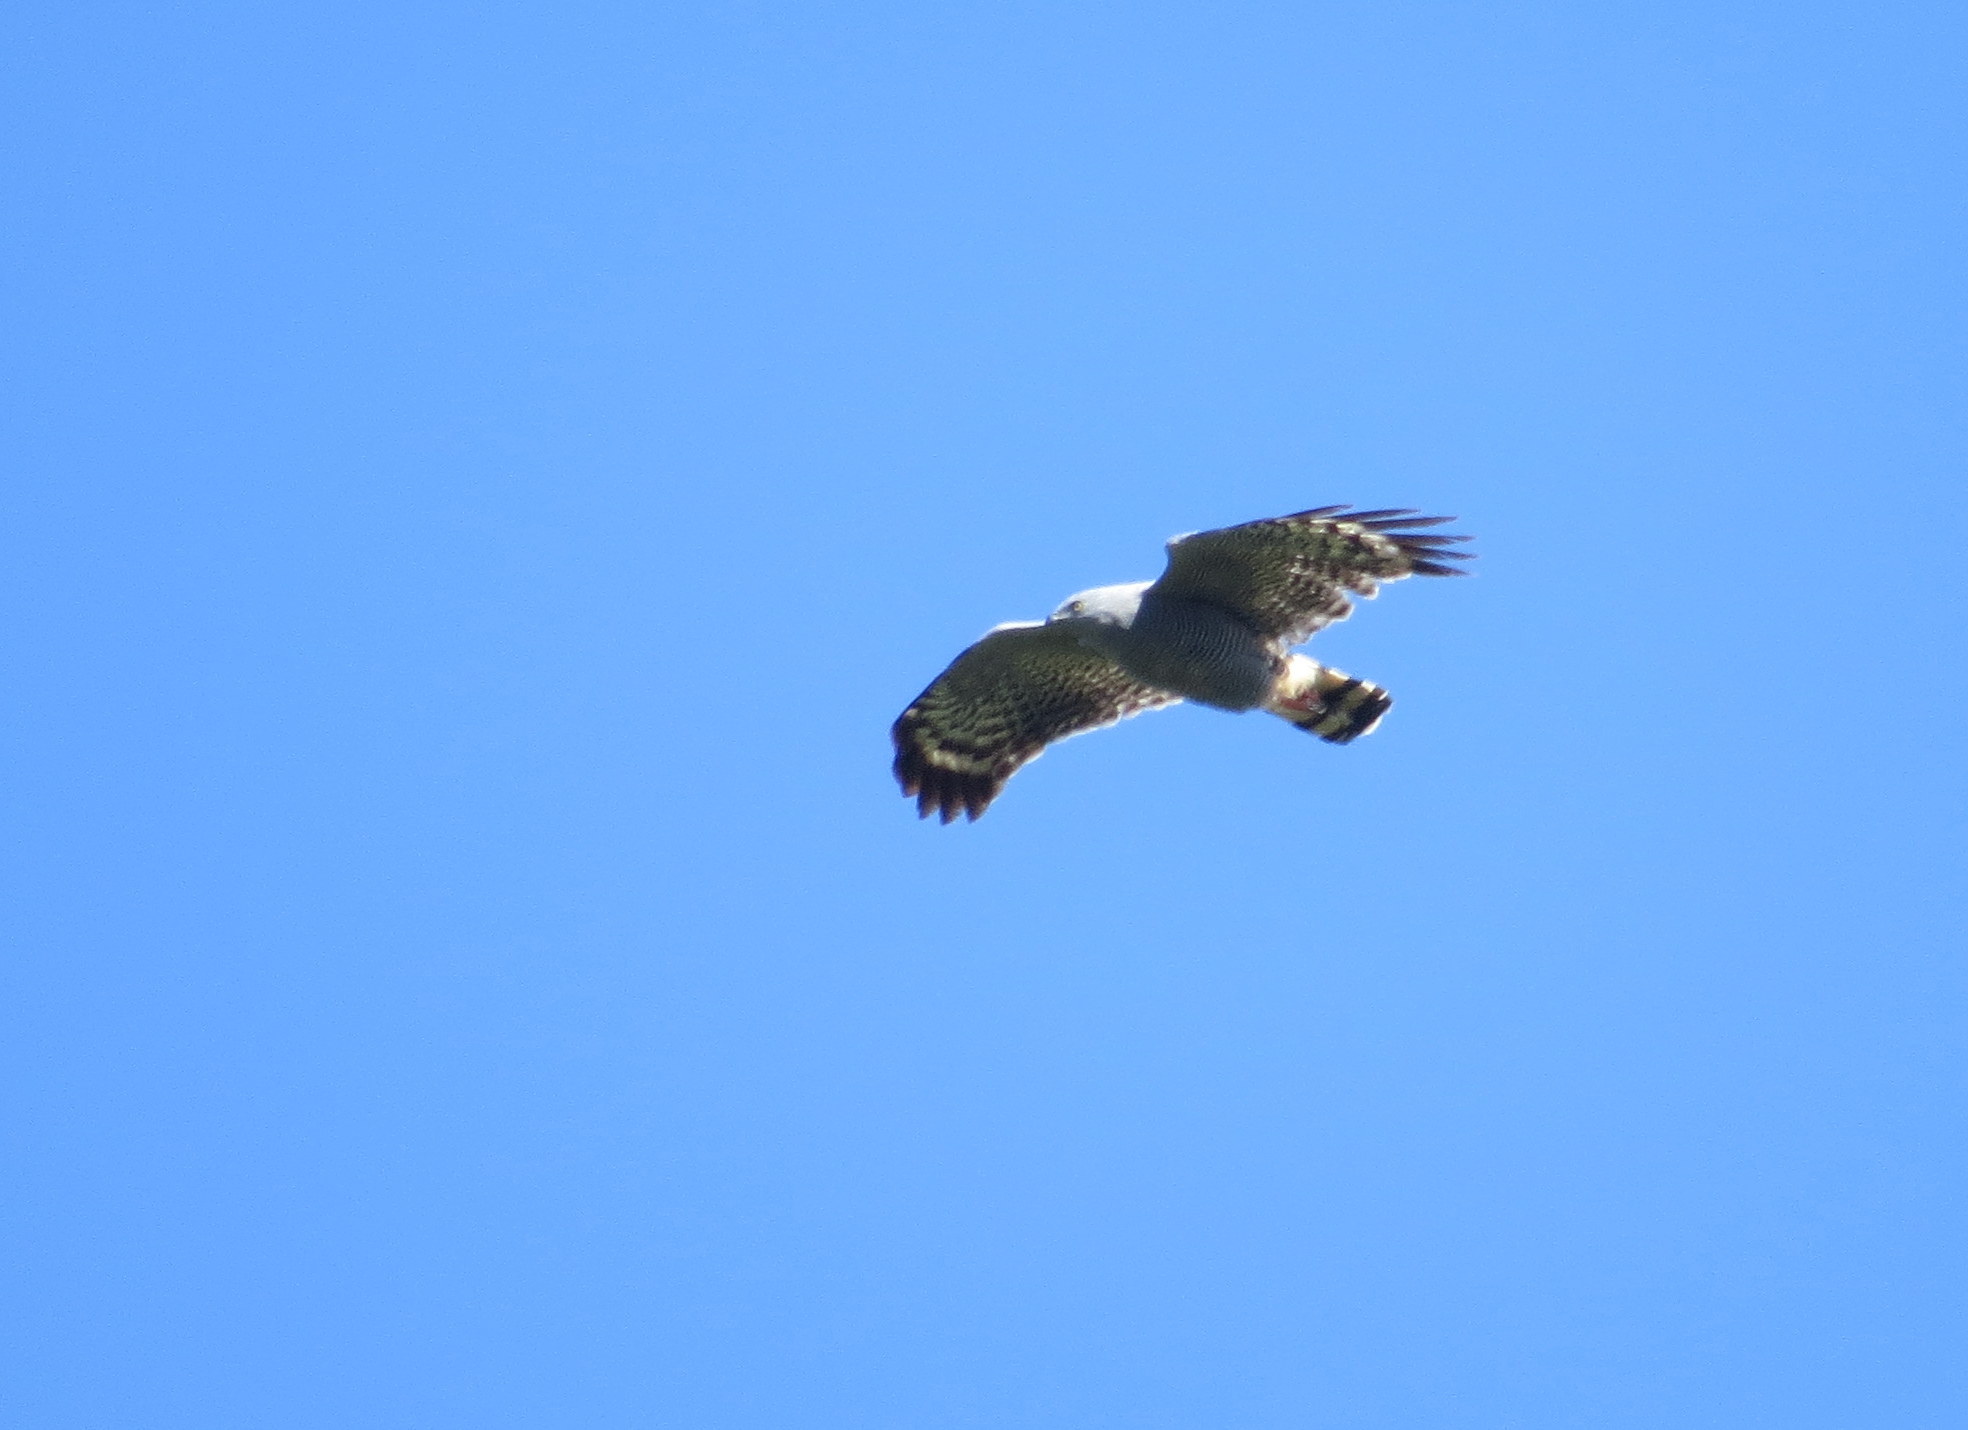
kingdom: Animalia
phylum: Chordata
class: Aves
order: Accipitriformes
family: Accipitridae
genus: Geranospiza
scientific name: Geranospiza caerulescens
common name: Crane hawk
